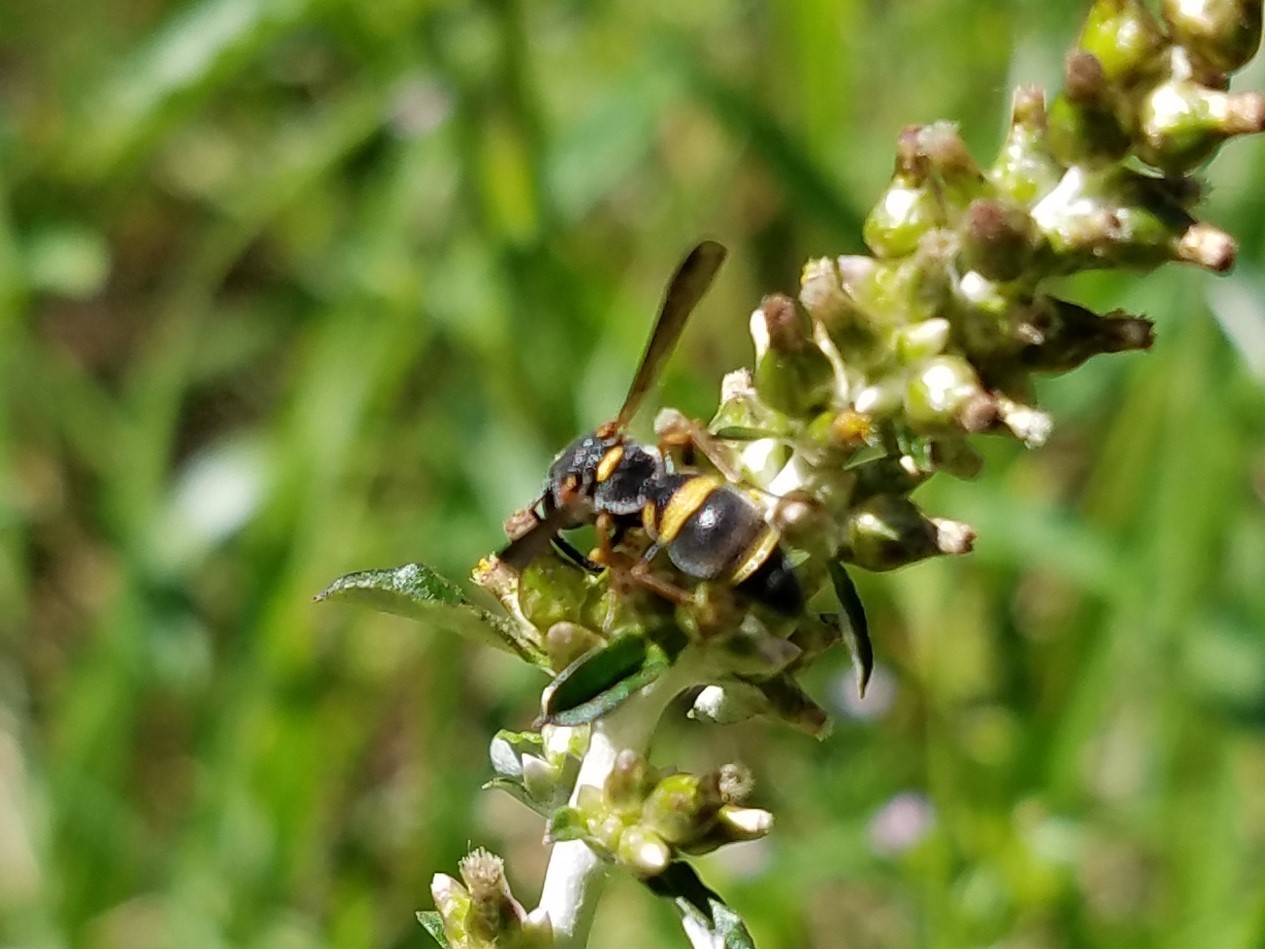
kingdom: Animalia
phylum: Arthropoda
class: Insecta
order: Hymenoptera
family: Eumenidae
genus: Parancistrocerus
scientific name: Parancistrocerus fulvipes
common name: Potter wasp
